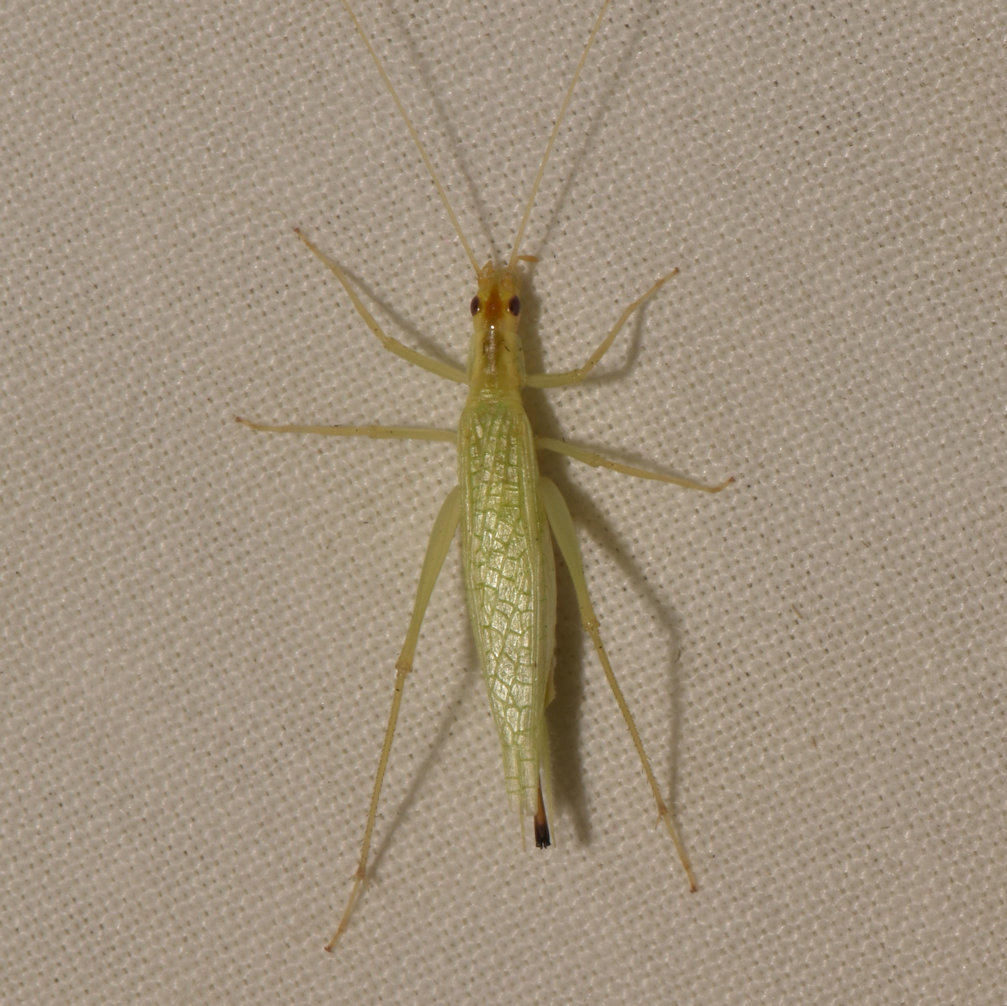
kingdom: Animalia
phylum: Arthropoda
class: Insecta
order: Orthoptera
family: Gryllidae
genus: Oecanthus
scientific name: Oecanthus niveus
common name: Narrow-winged tree cricket
